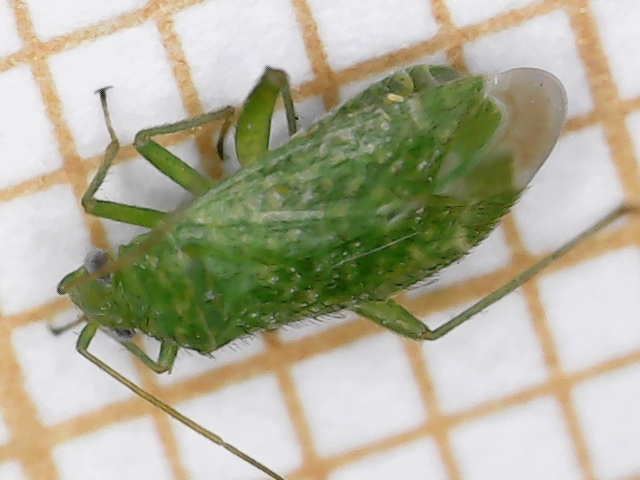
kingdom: Animalia
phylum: Arthropoda
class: Insecta
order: Hemiptera
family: Miridae
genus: Orthotylus
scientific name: Orthotylus flavosparsus
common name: Plant bug
